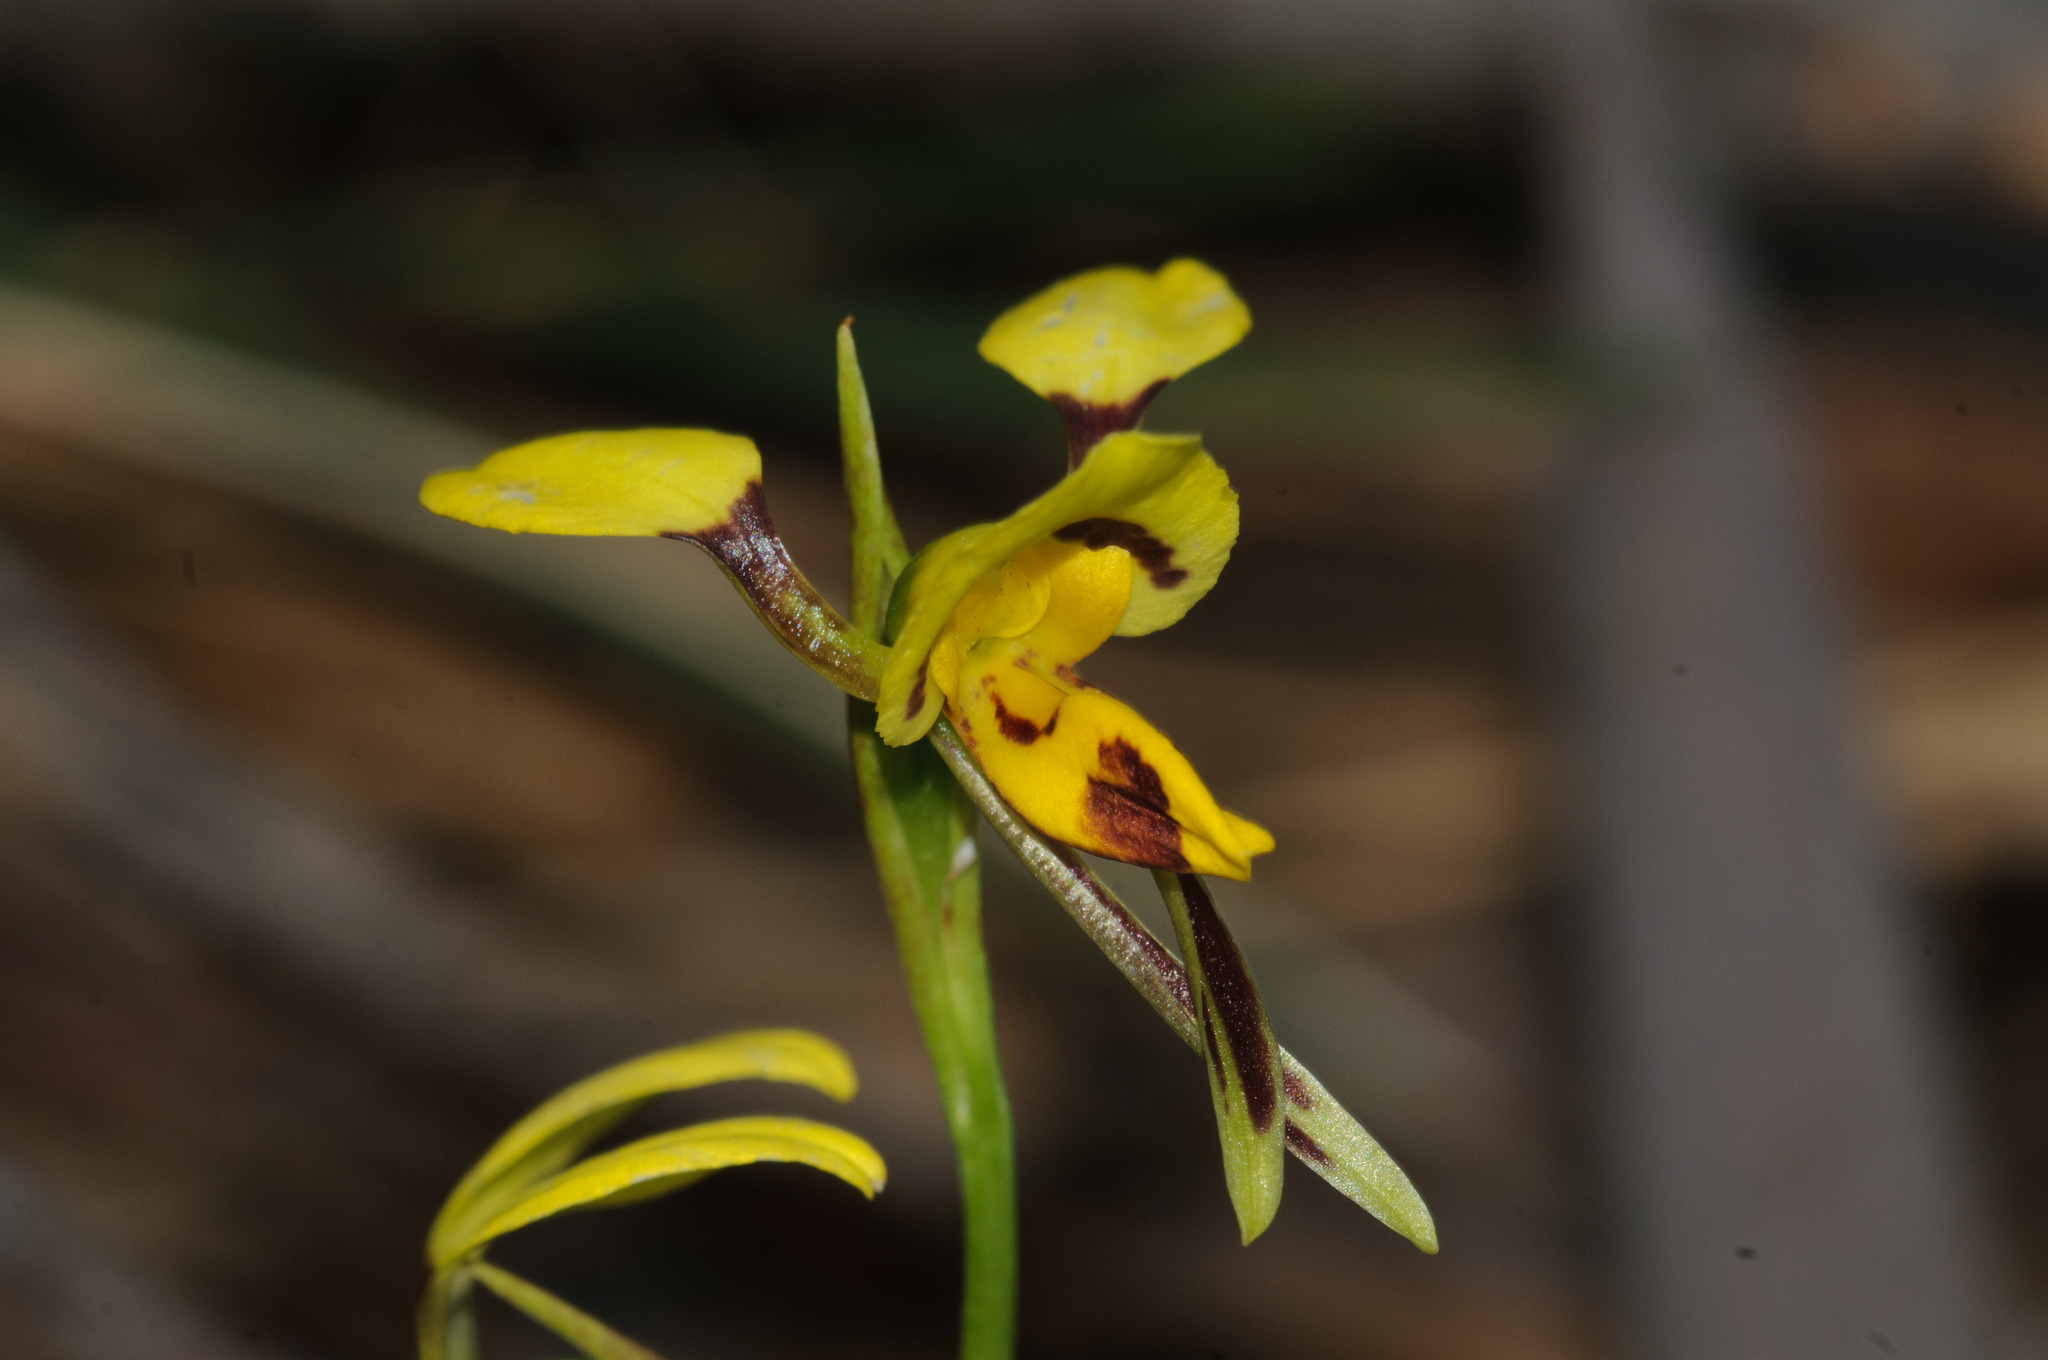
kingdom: Plantae
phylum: Tracheophyta
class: Liliopsida
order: Asparagales
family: Orchidaceae
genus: Diuris
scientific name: Diuris sulphurea
